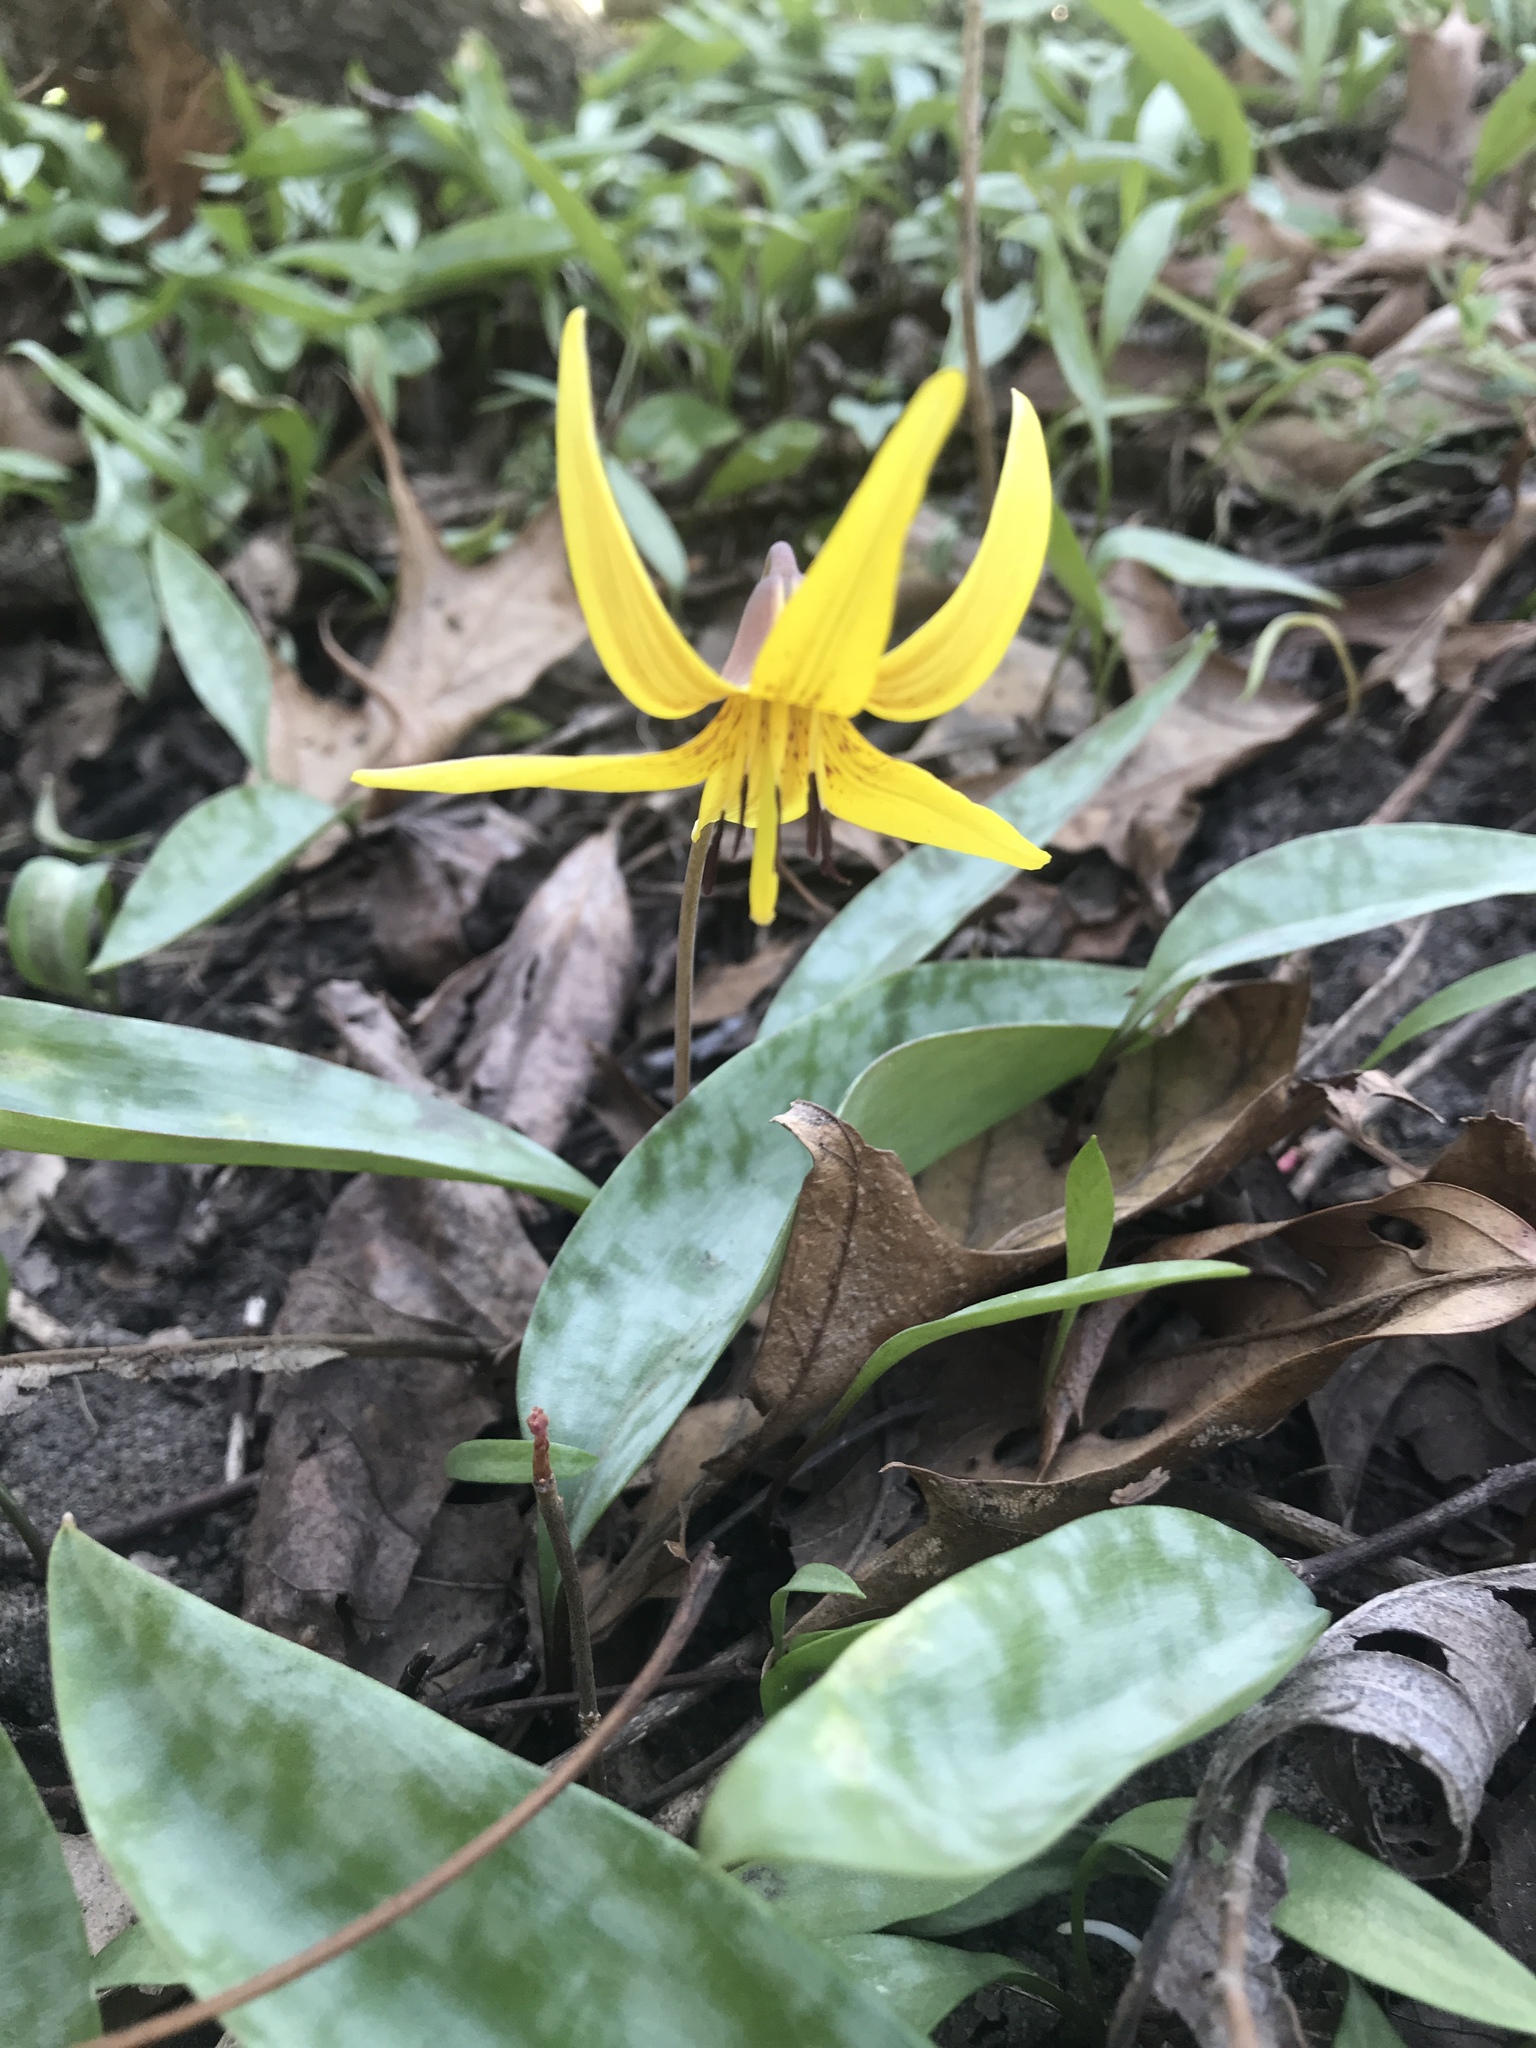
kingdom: Plantae
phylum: Tracheophyta
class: Liliopsida
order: Liliales
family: Liliaceae
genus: Erythronium
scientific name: Erythronium americanum
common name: Yellow adder's-tongue
